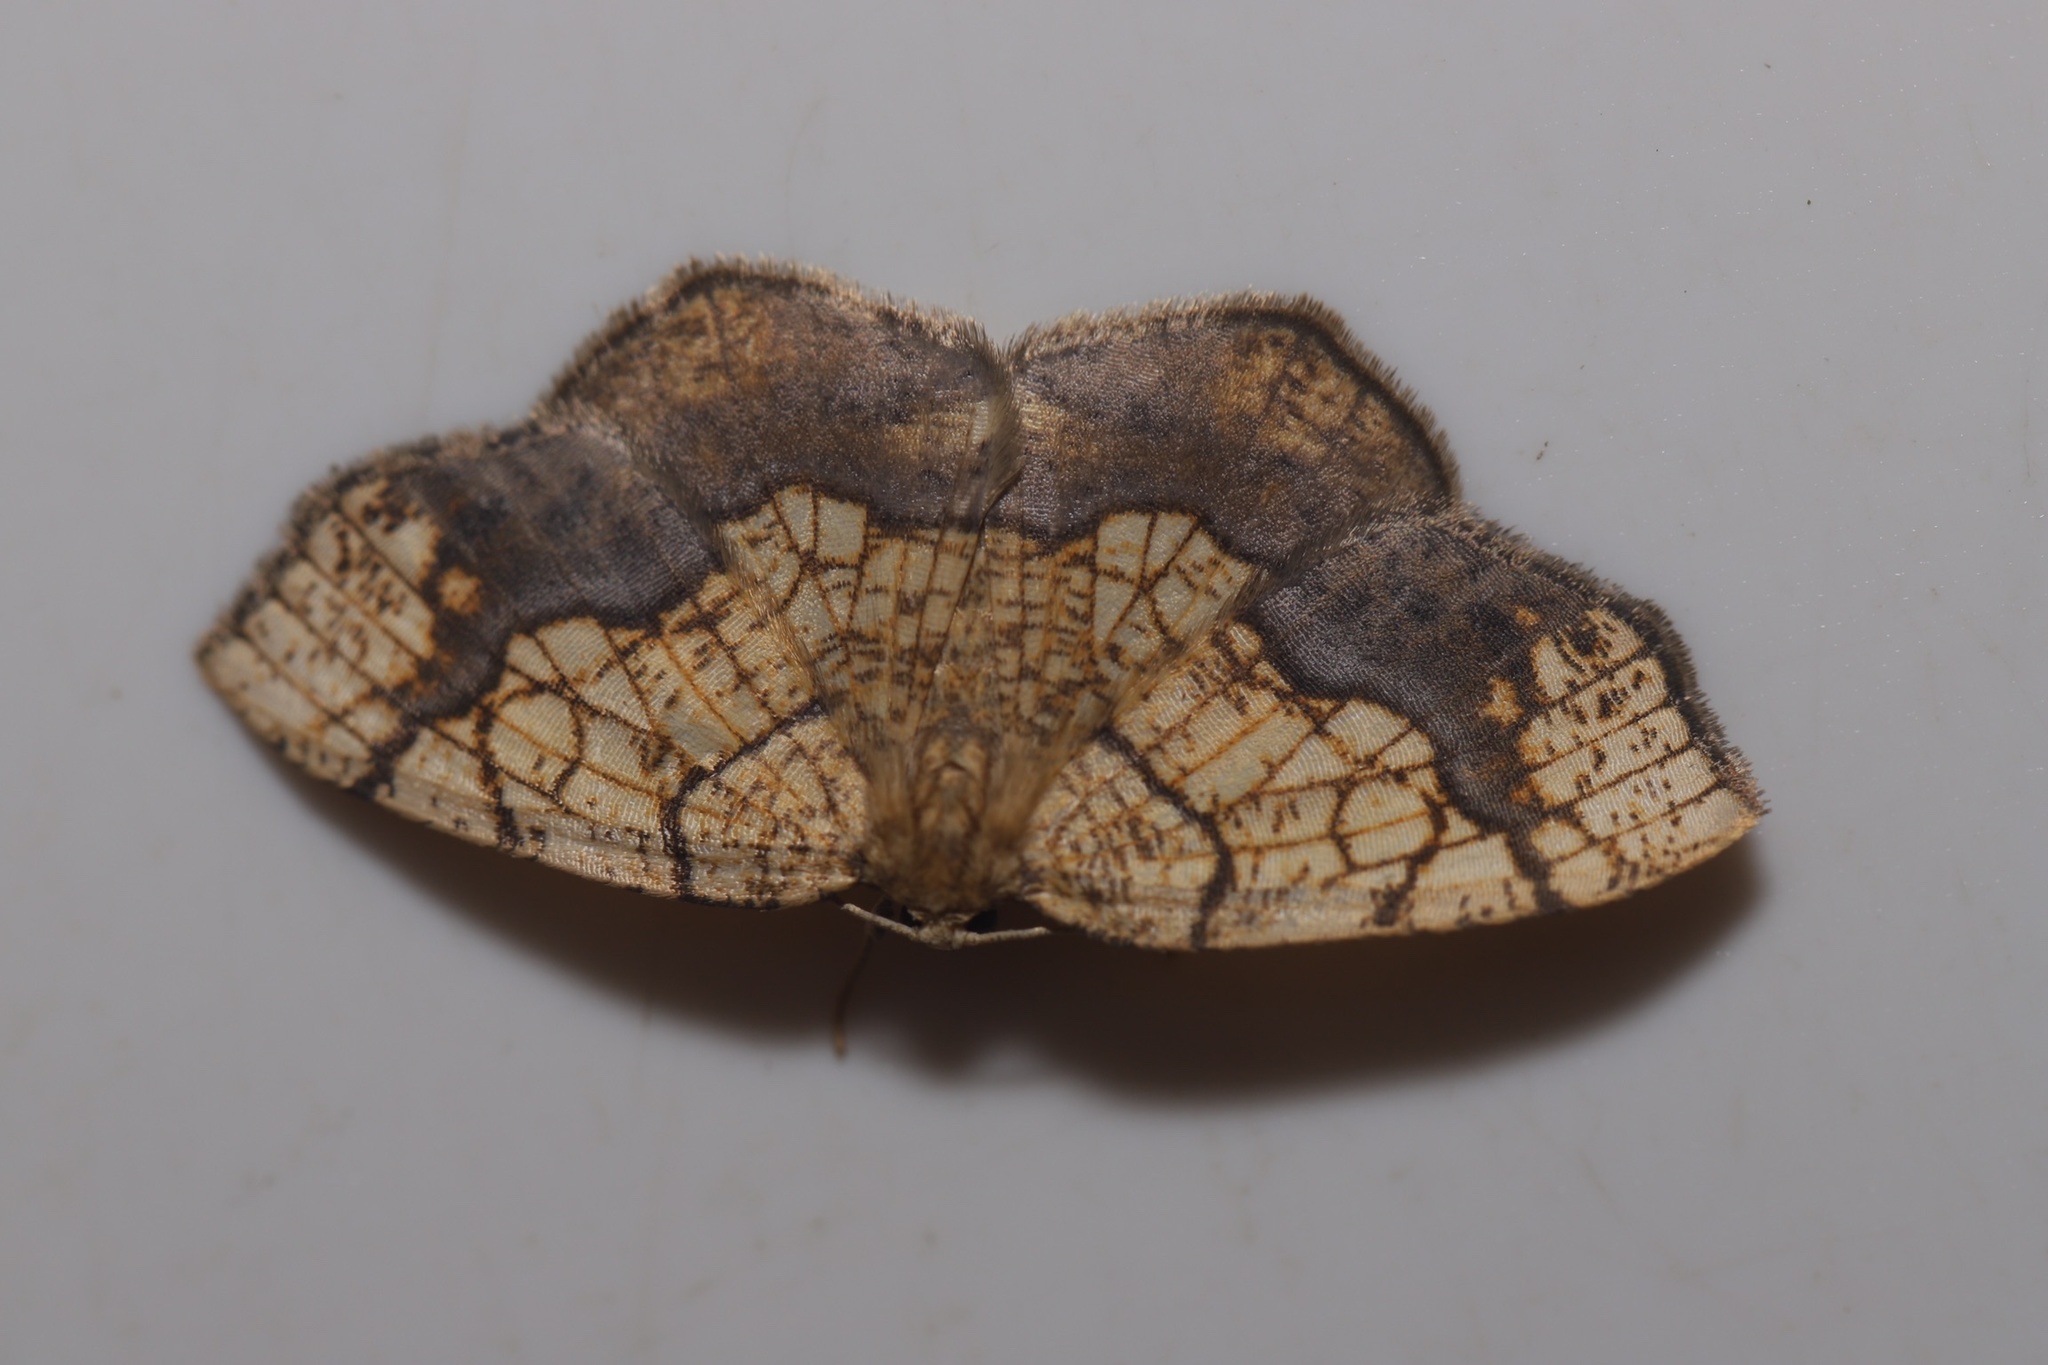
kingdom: Animalia
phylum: Arthropoda
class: Insecta
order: Lepidoptera
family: Geometridae
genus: Nematocampa
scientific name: Nematocampa resistaria
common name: Horned spanworm moth
